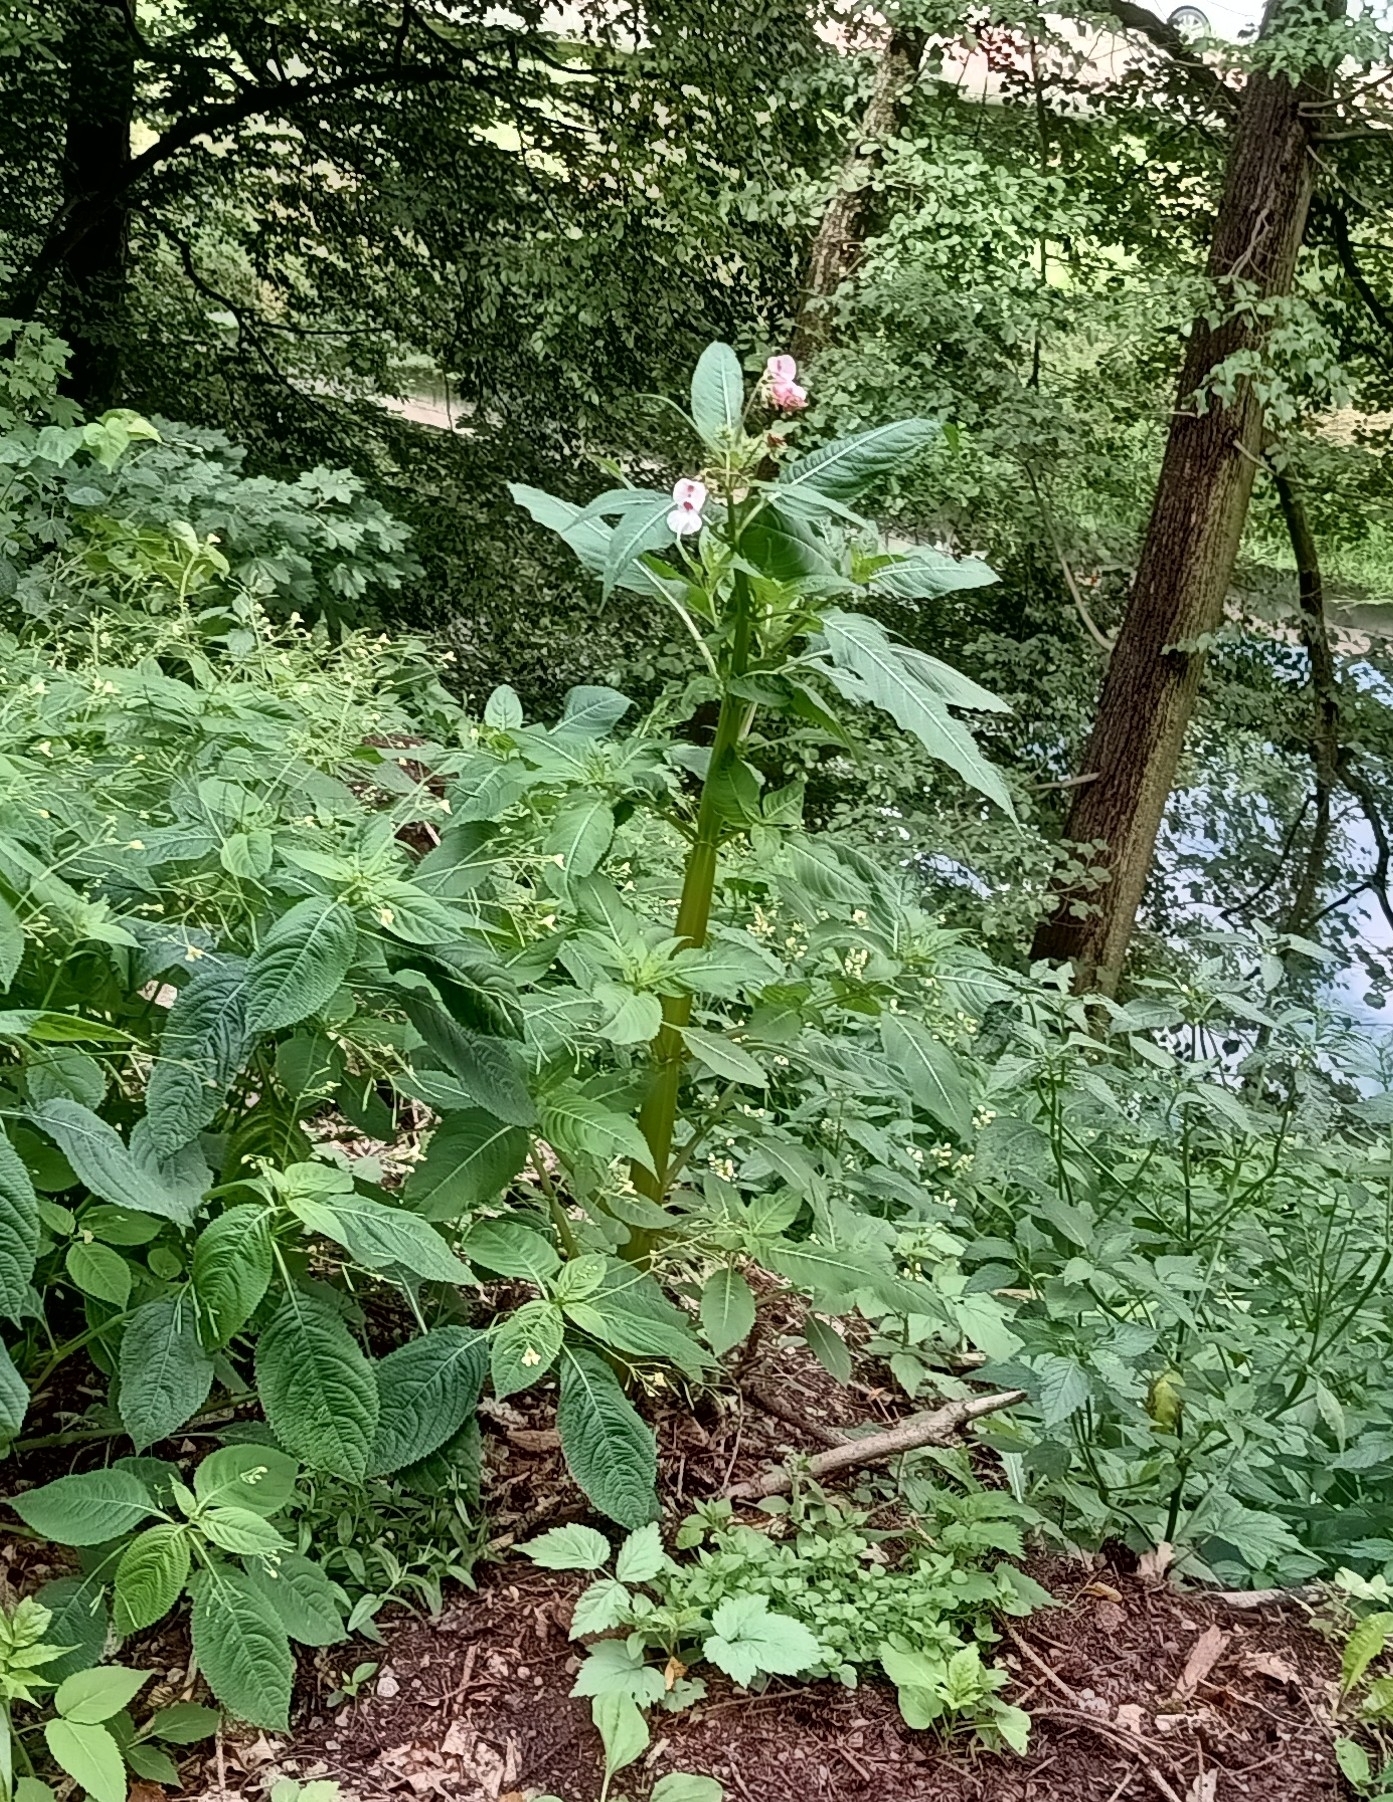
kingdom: Plantae
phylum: Tracheophyta
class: Magnoliopsida
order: Ericales
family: Balsaminaceae
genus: Impatiens
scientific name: Impatiens glandulifera
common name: Himalayan balsam
